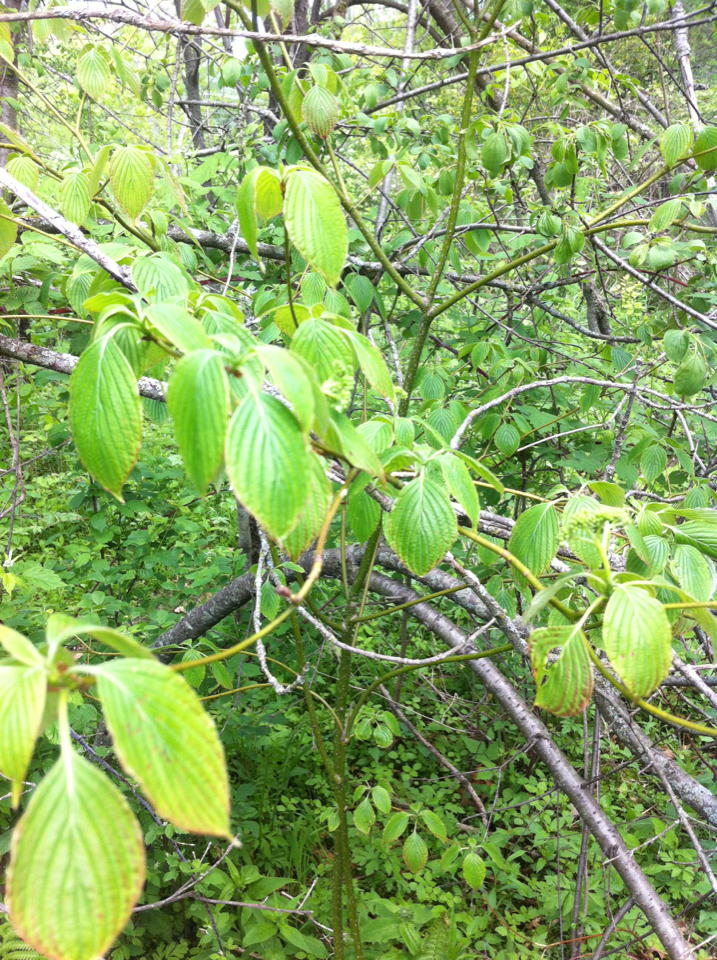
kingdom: Plantae
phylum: Tracheophyta
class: Magnoliopsida
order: Cornales
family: Cornaceae
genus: Cornus
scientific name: Cornus alternifolia
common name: Pagoda dogwood
